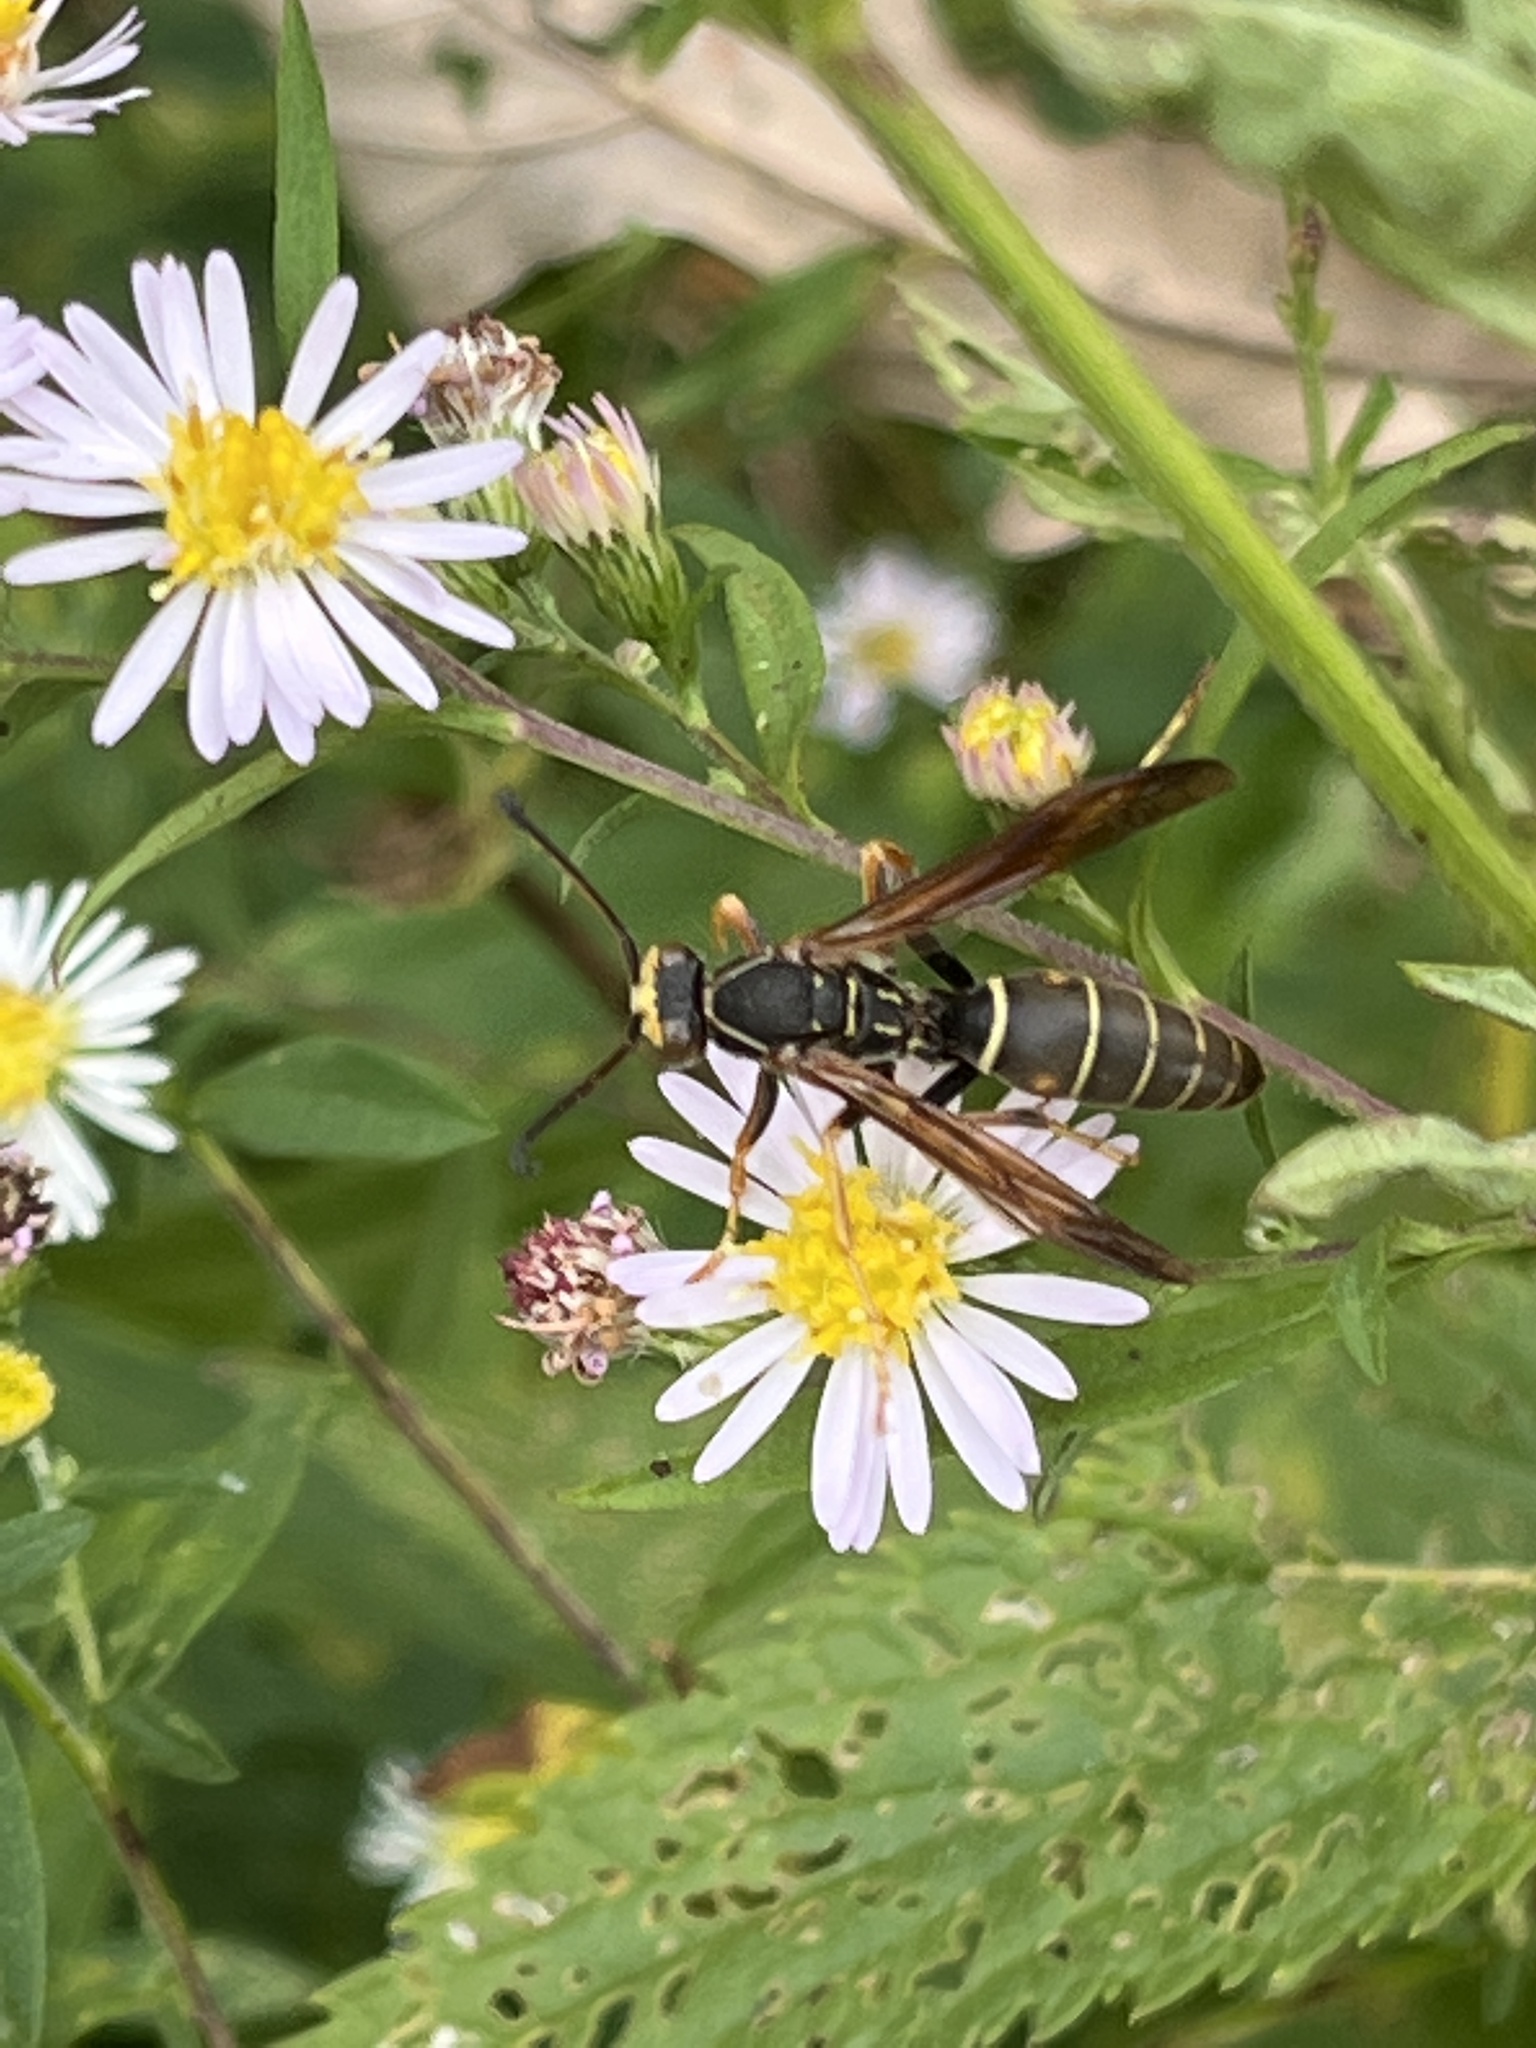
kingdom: Animalia
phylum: Arthropoda
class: Insecta
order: Hymenoptera
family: Eumenidae
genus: Polistes
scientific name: Polistes fuscatus
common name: Dark paper wasp
